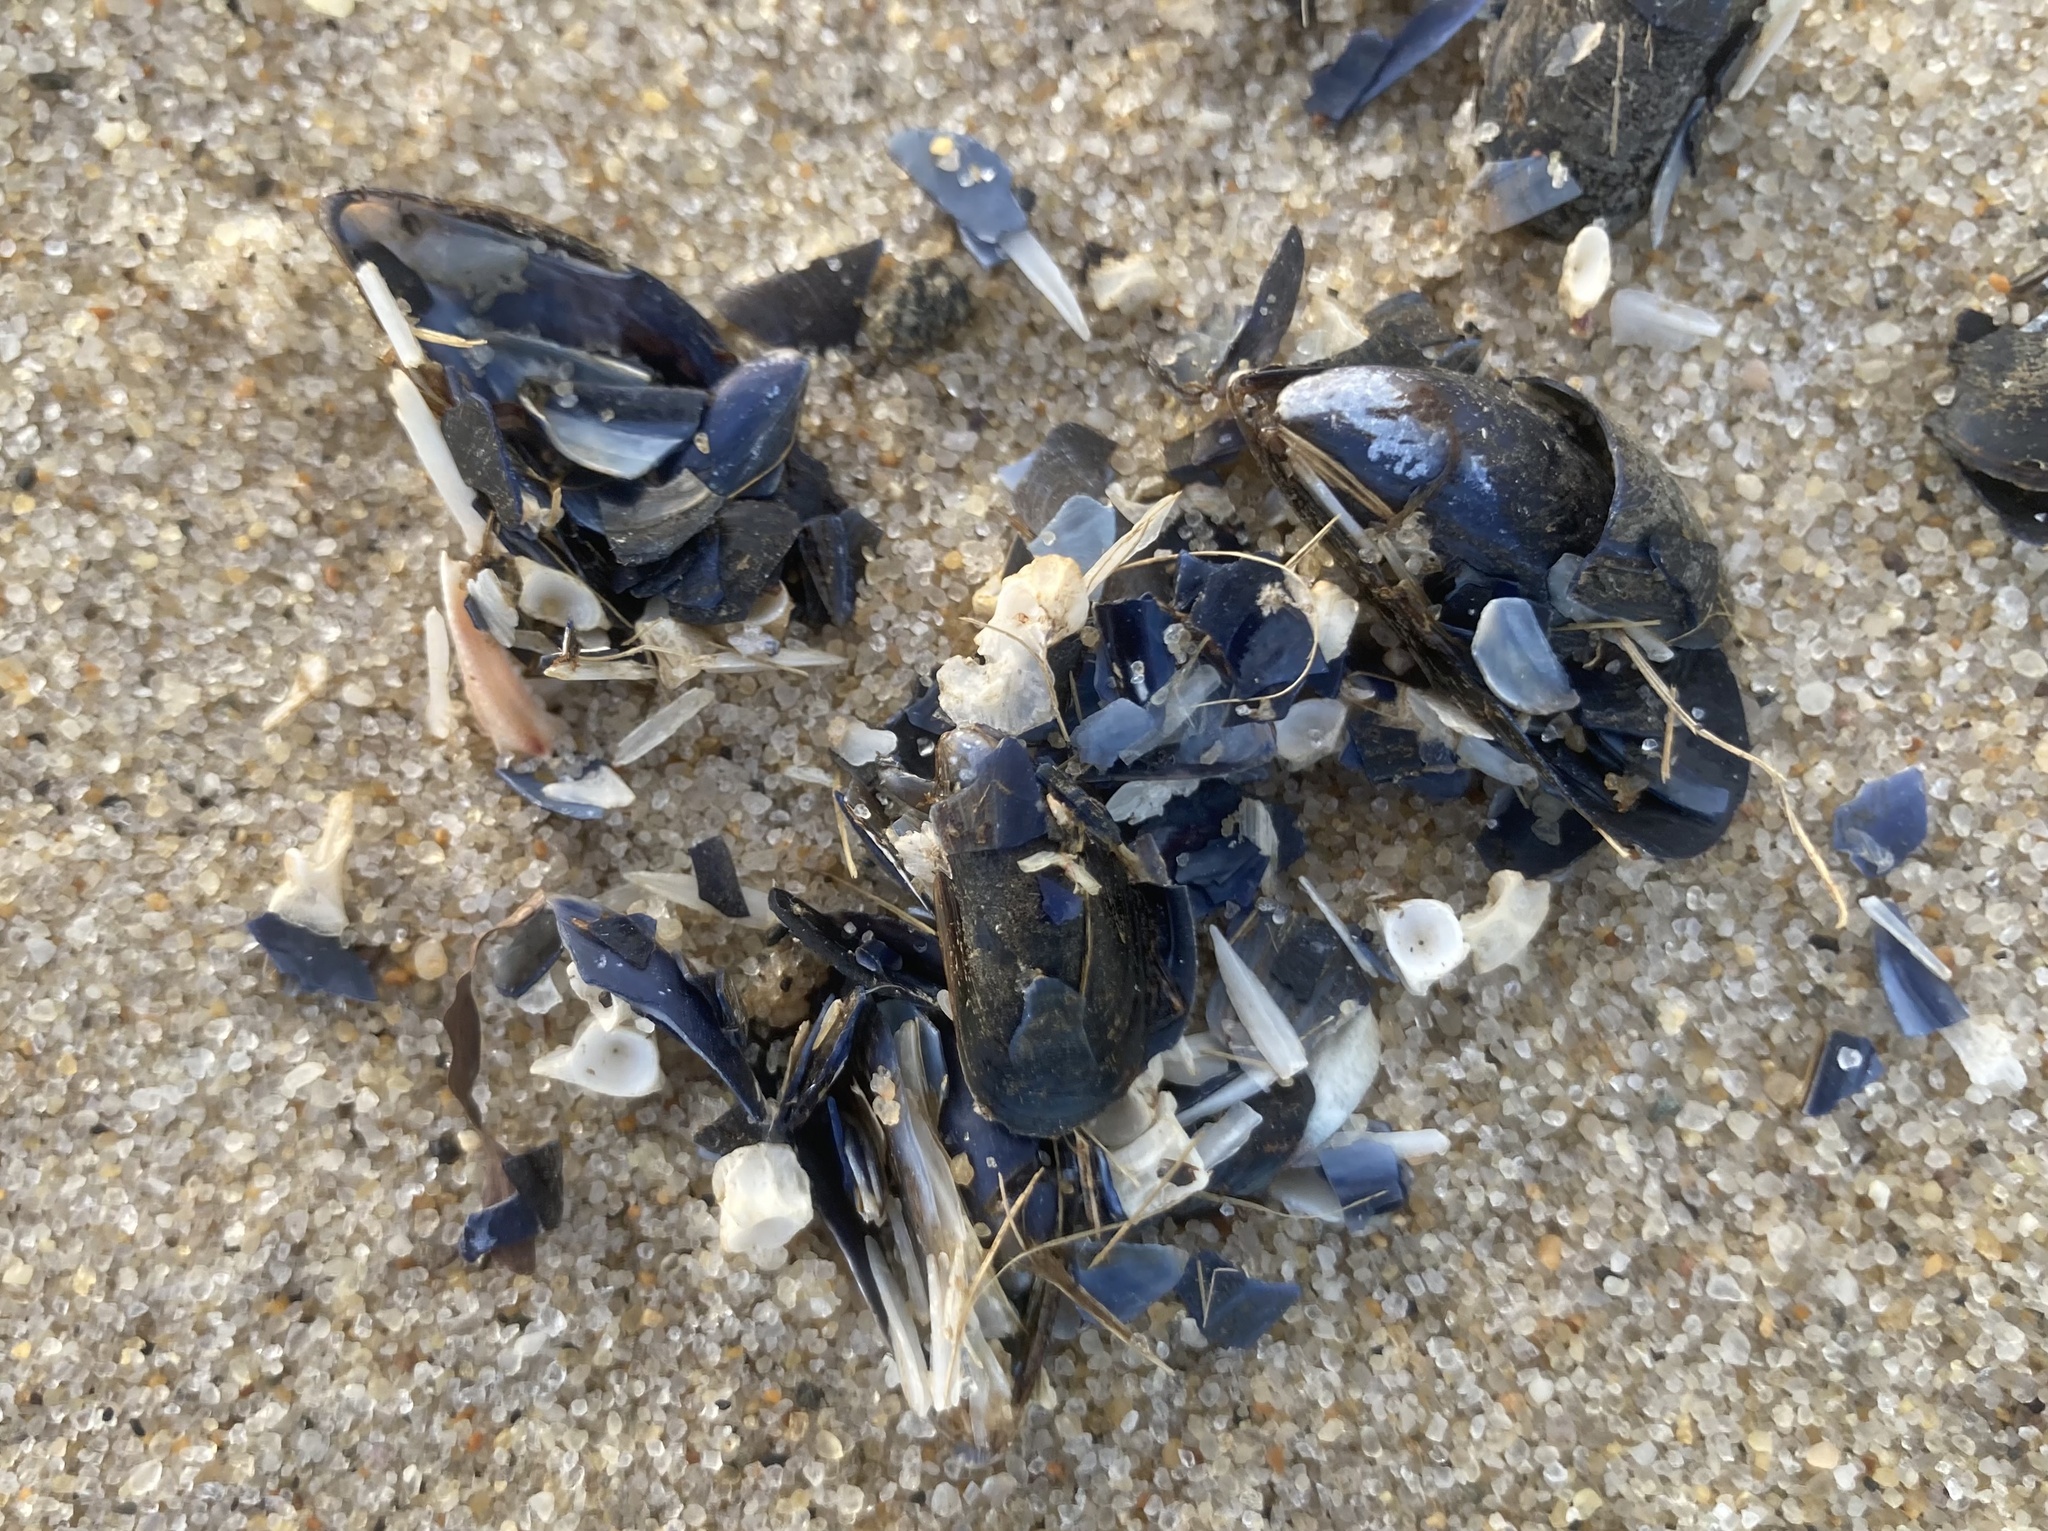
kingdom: Animalia
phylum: Mollusca
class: Bivalvia
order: Mytilida
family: Mytilidae
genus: Mytilus
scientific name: Mytilus edulis
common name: Blue mussel
